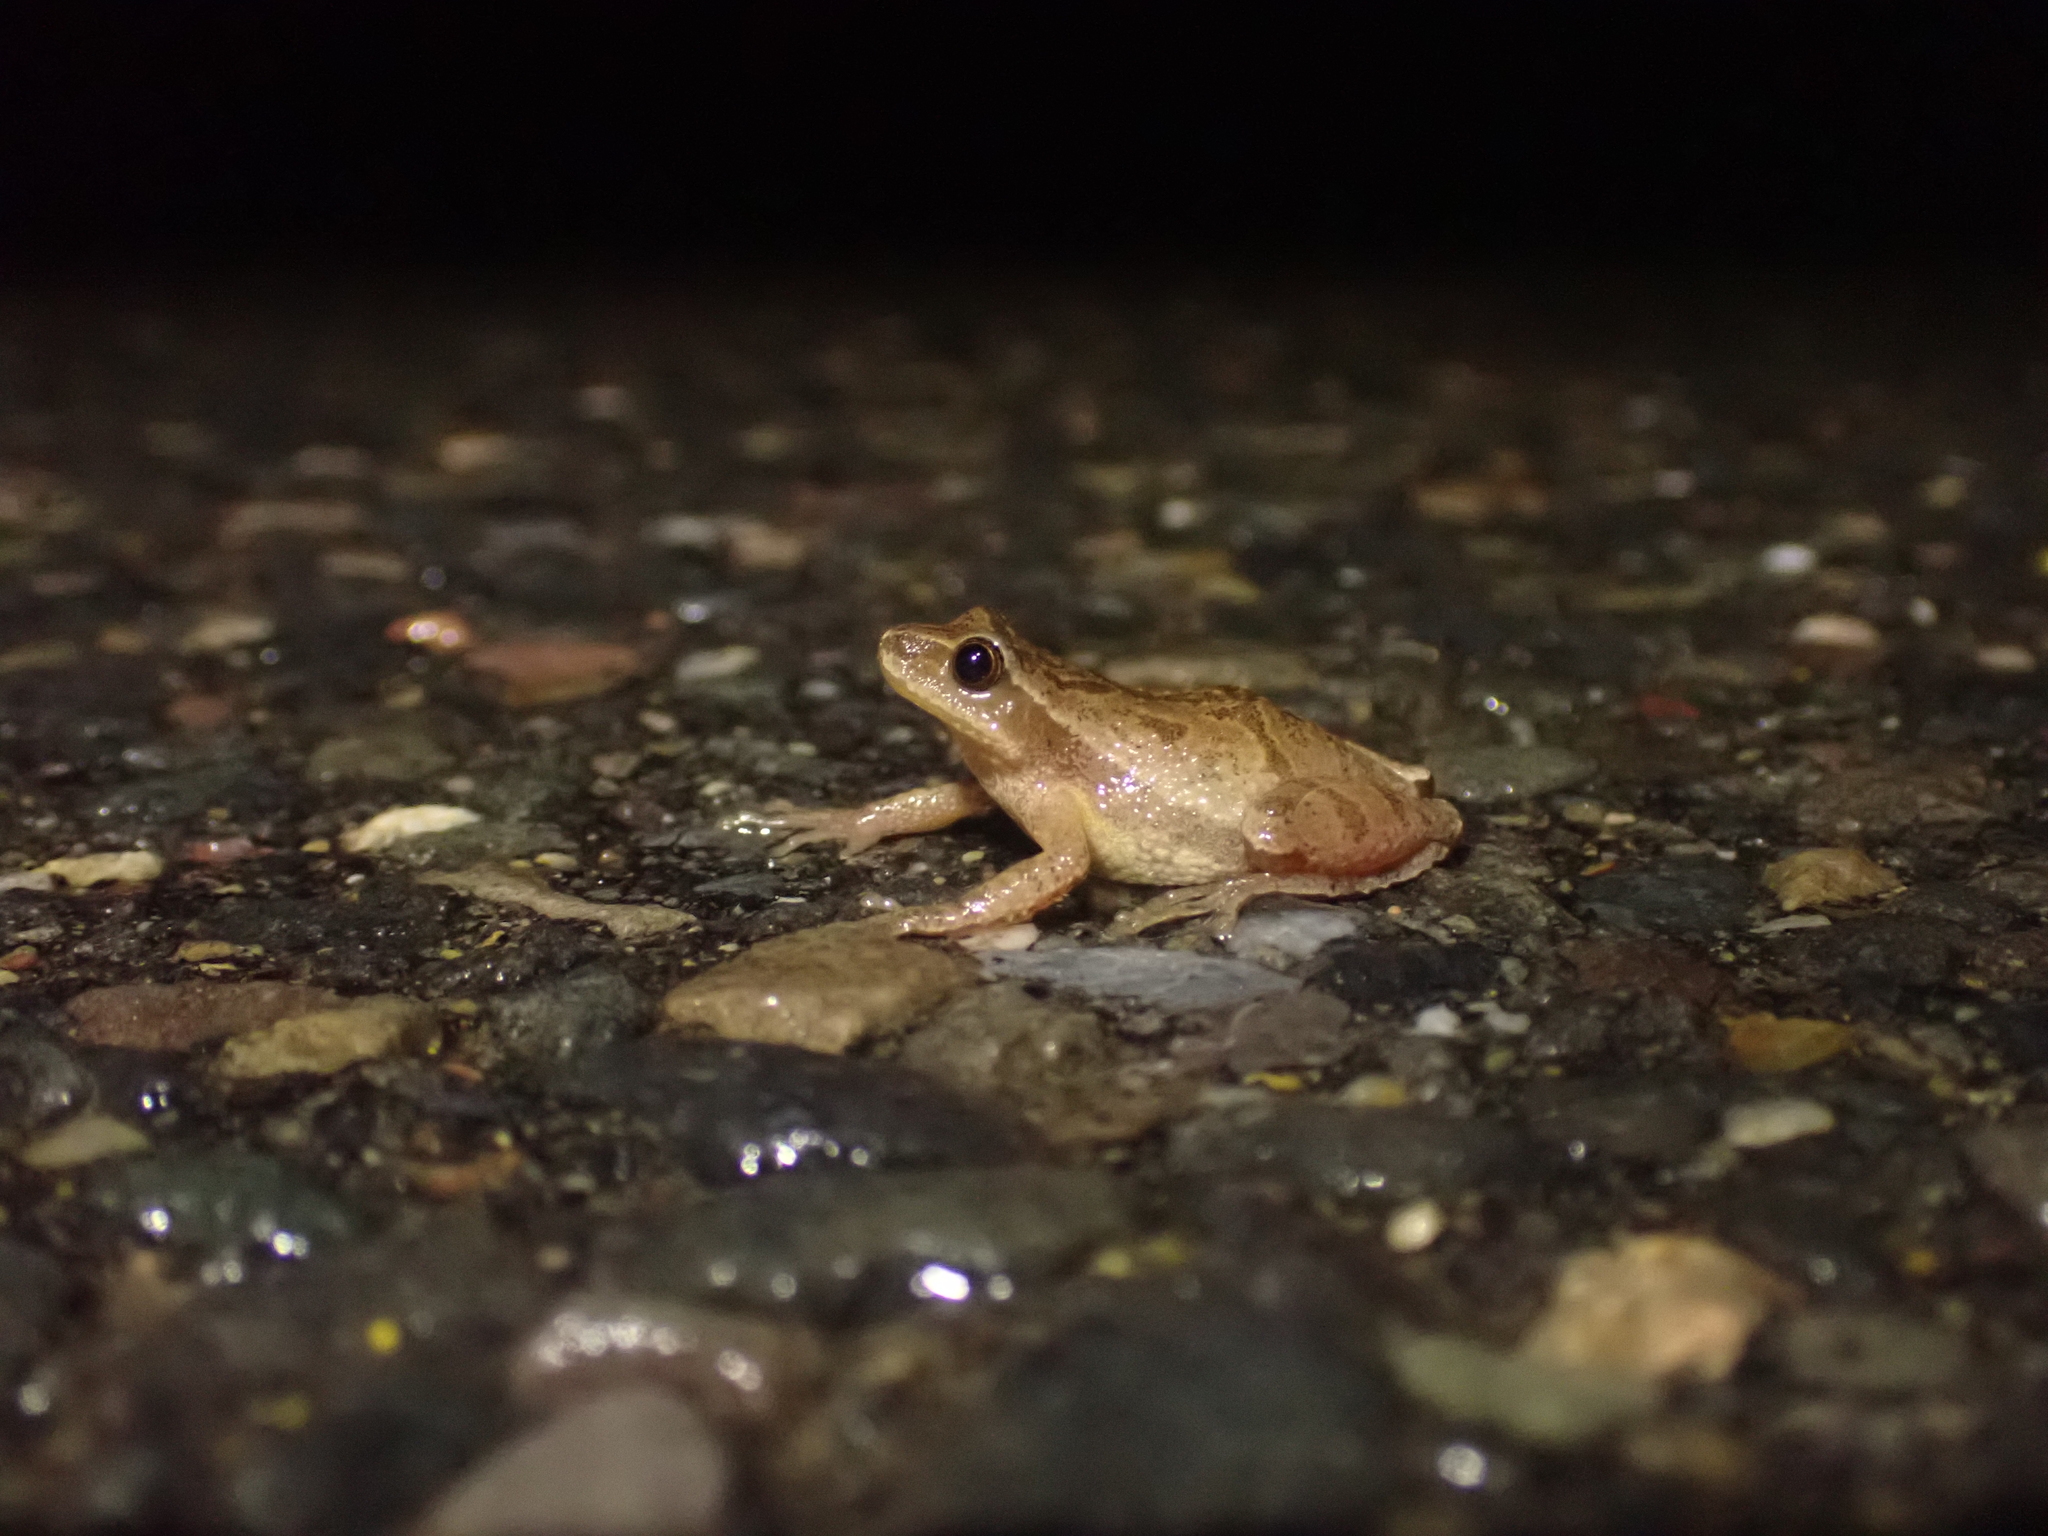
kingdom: Animalia
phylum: Chordata
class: Amphibia
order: Anura
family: Hylidae
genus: Pseudacris
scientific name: Pseudacris crucifer
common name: Spring peeper
